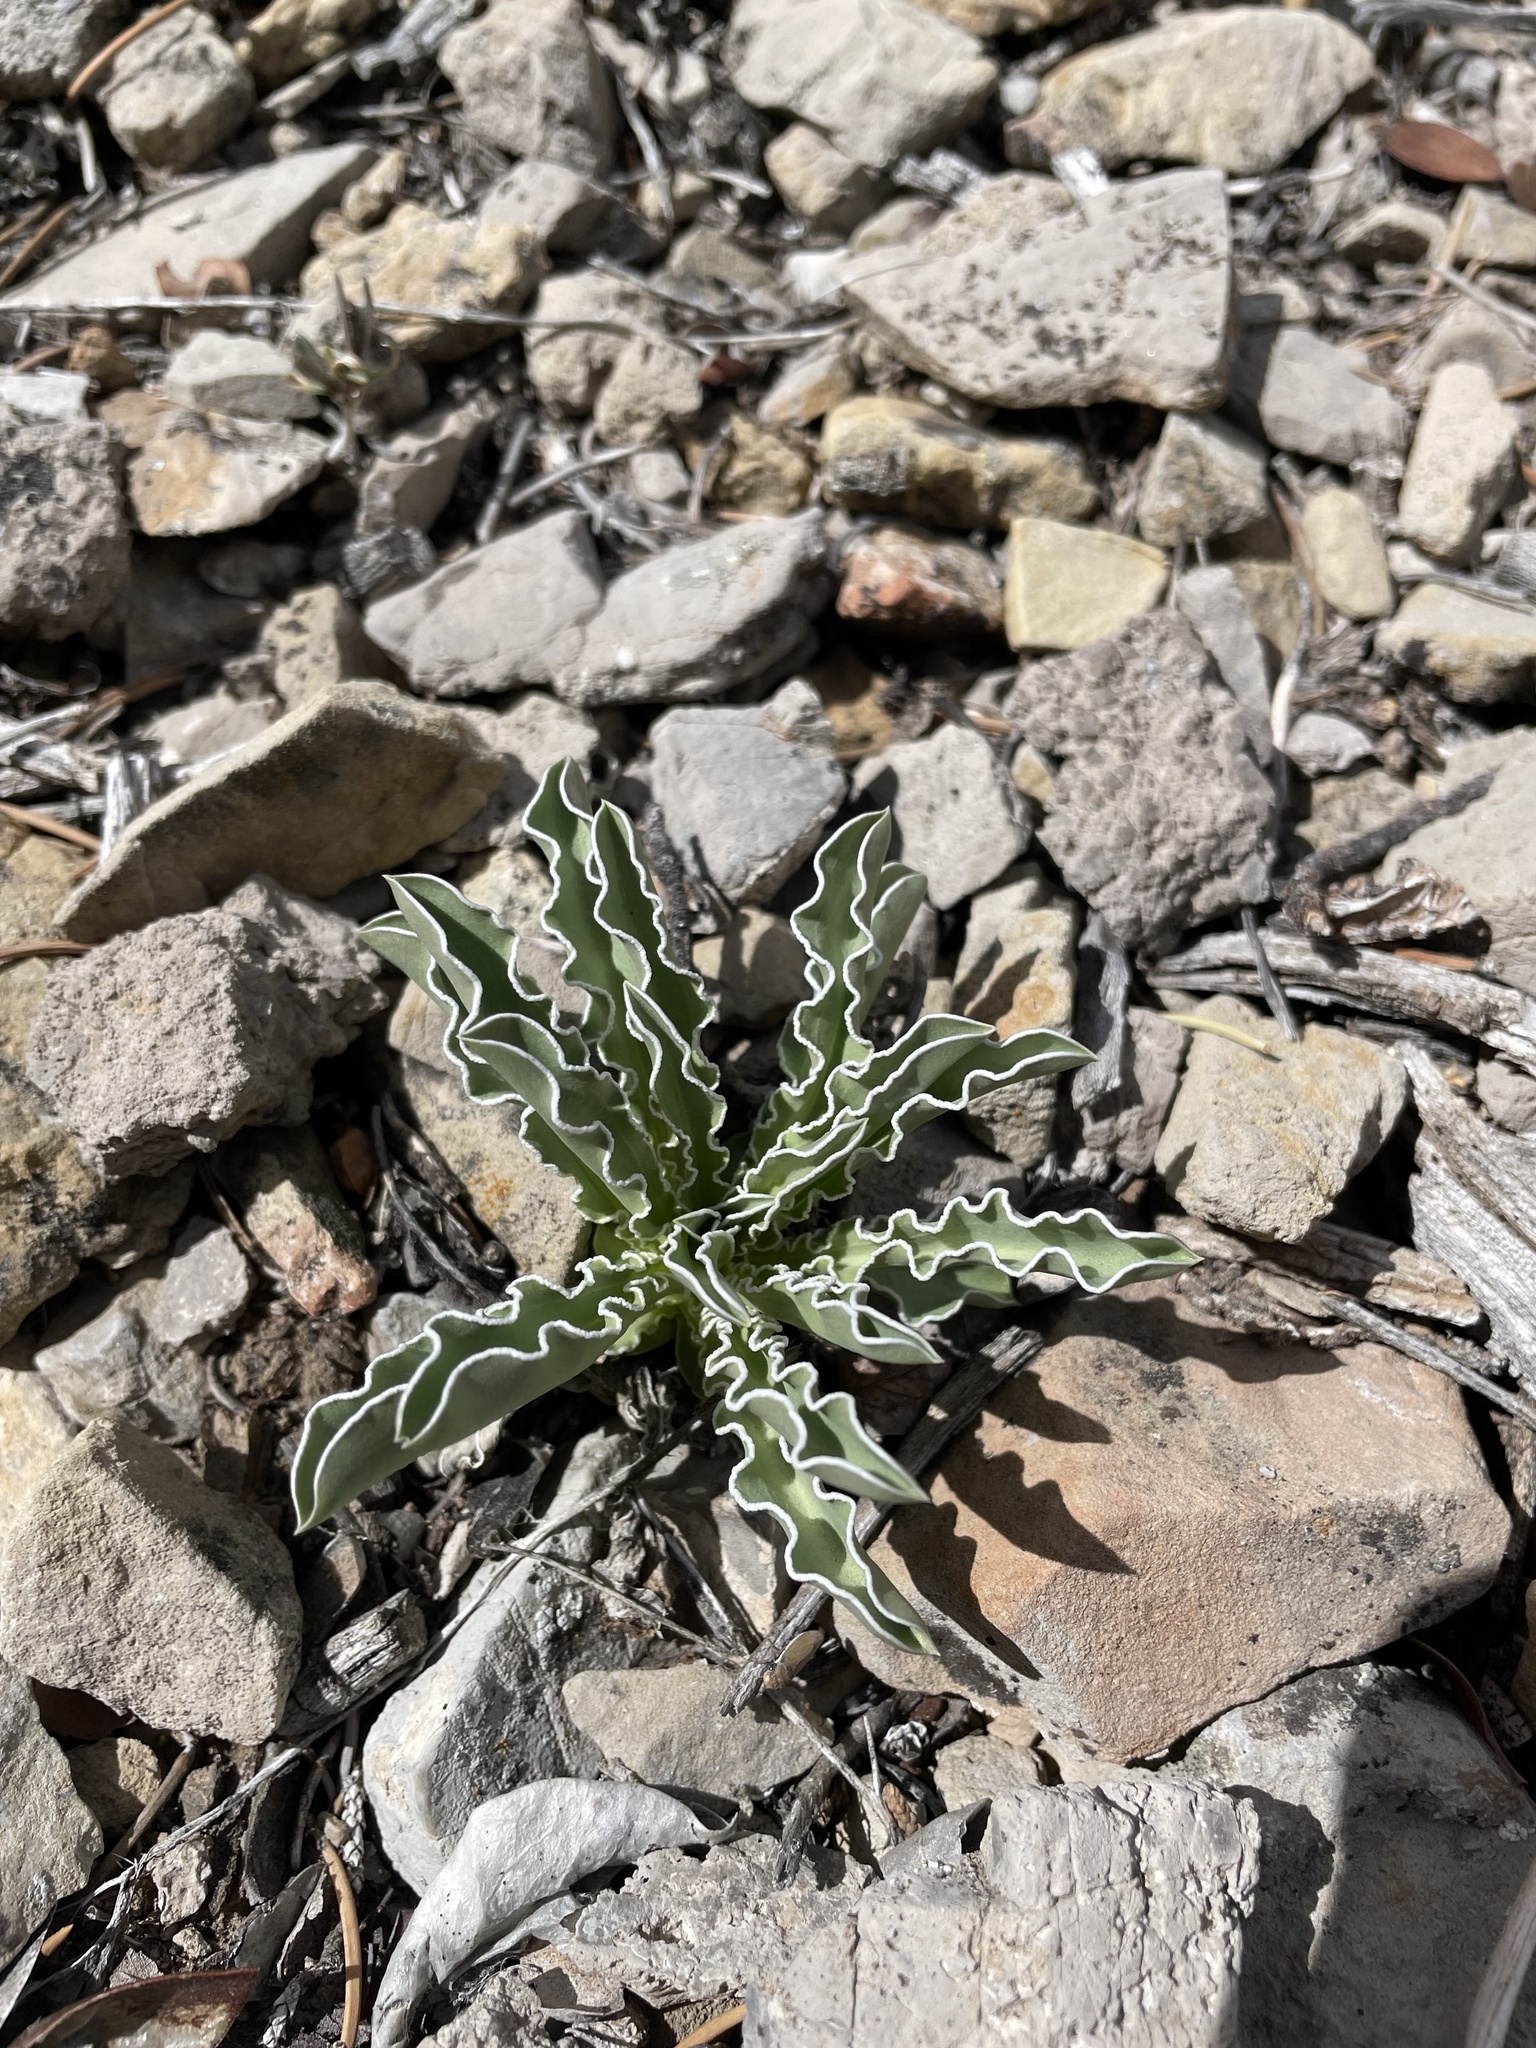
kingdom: Plantae
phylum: Tracheophyta
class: Magnoliopsida
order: Gentianales
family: Gentianaceae
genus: Frasera
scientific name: Frasera albomarginata
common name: Desert frasera
